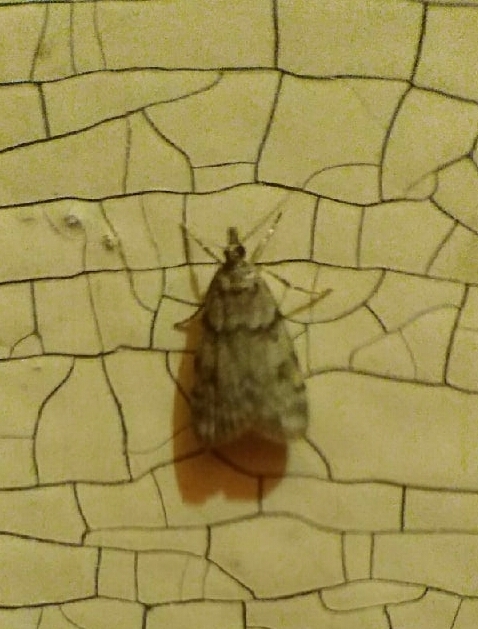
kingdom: Animalia
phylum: Arthropoda
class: Insecta
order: Lepidoptera
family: Crambidae
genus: Scoparia
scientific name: Scoparia cembrella
